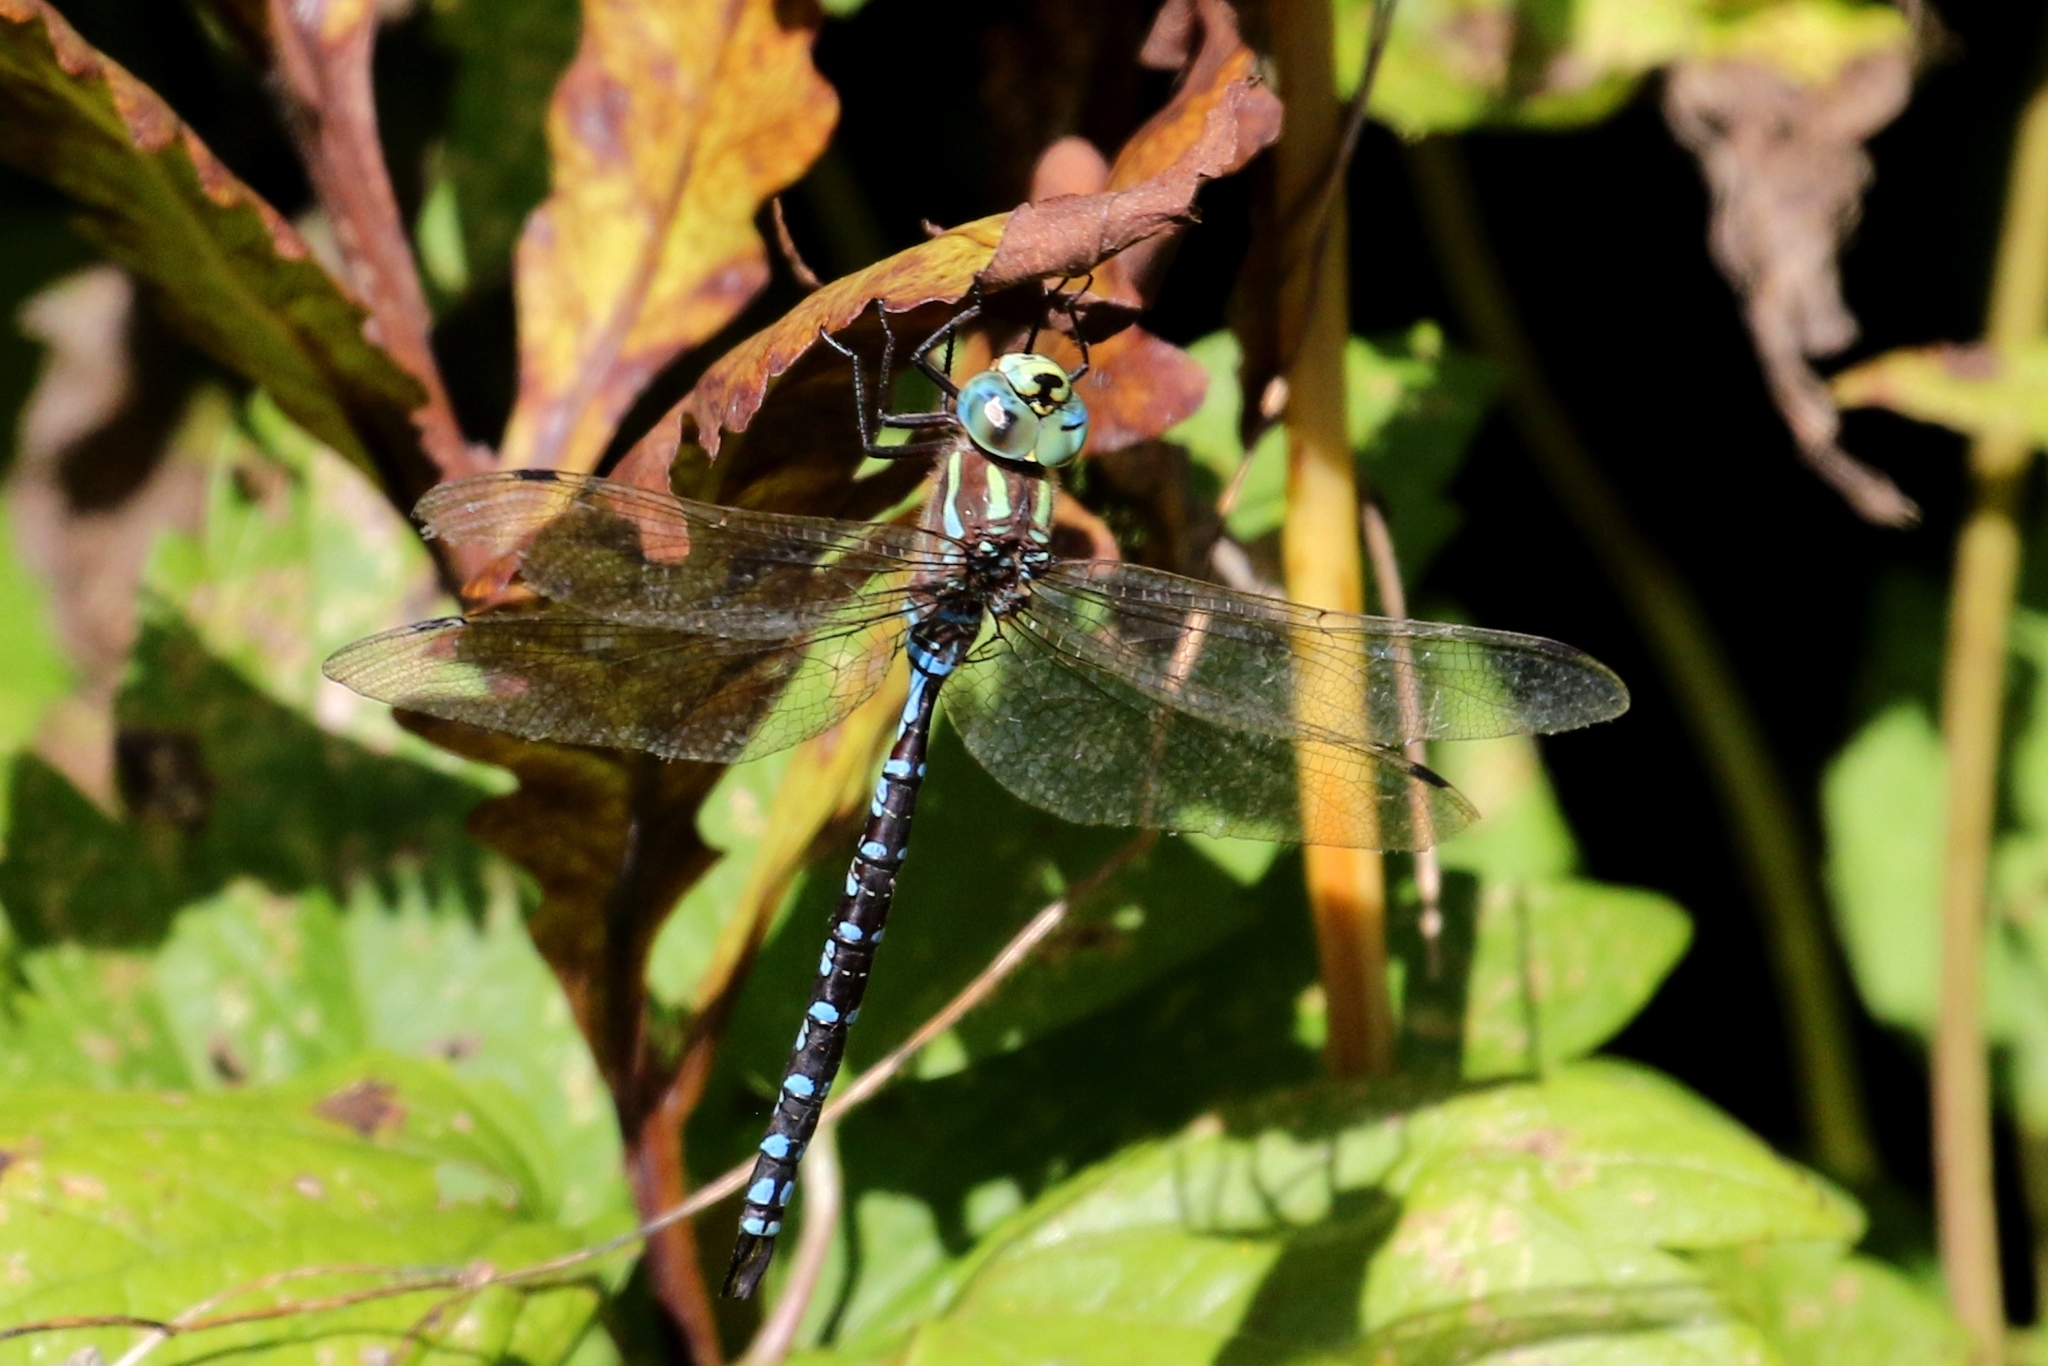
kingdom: Animalia
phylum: Arthropoda
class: Insecta
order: Odonata
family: Aeshnidae
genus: Aeshna
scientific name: Aeshna constricta
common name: Lance-tipped darner
